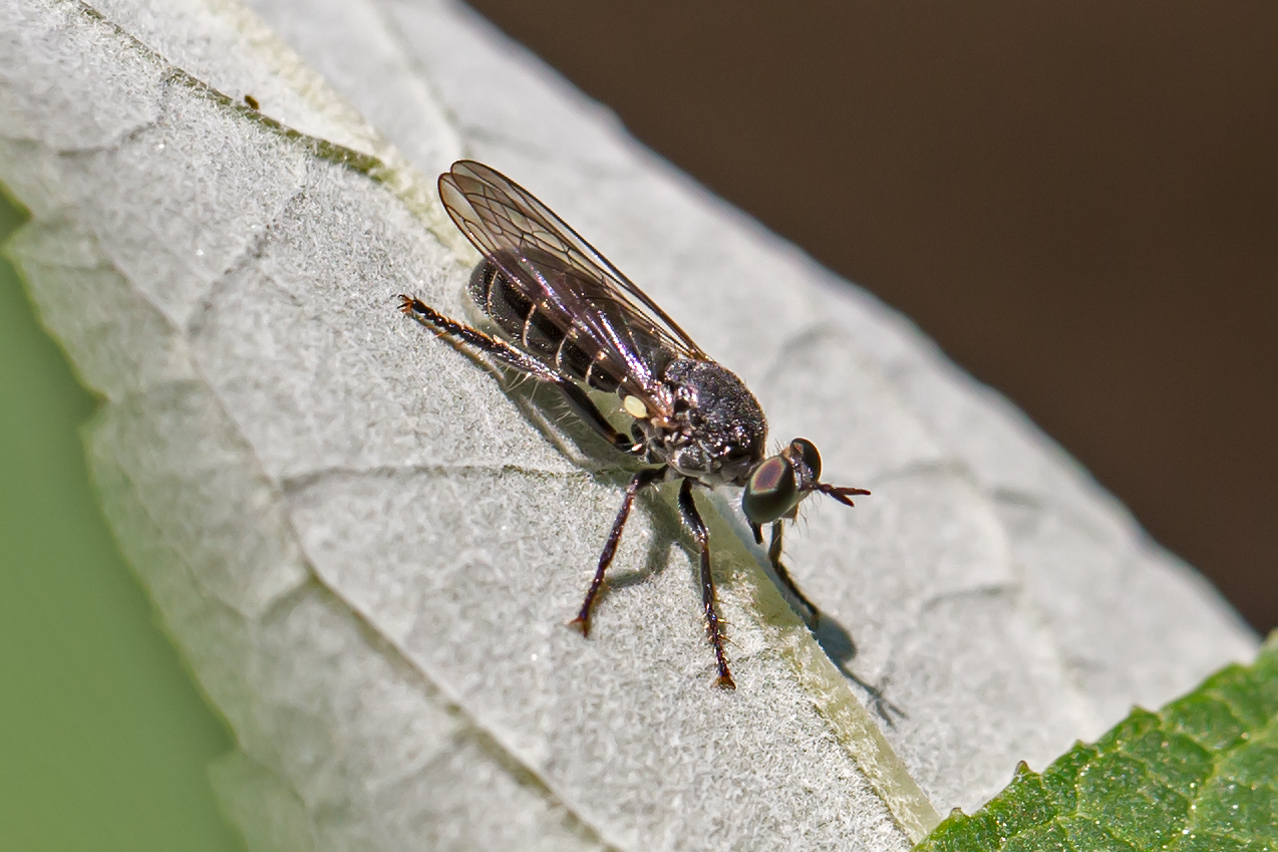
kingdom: Animalia
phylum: Arthropoda
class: Insecta
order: Diptera
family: Asilidae
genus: Atomosia
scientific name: Atomosia puella
